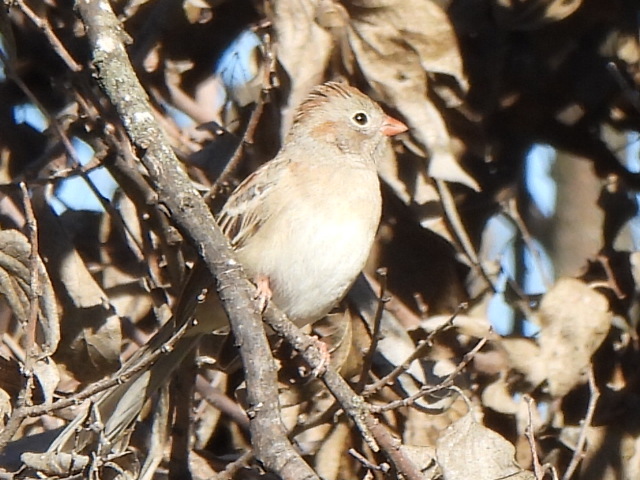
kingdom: Animalia
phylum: Chordata
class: Aves
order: Passeriformes
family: Passerellidae
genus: Spizella
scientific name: Spizella pusilla
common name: Field sparrow
